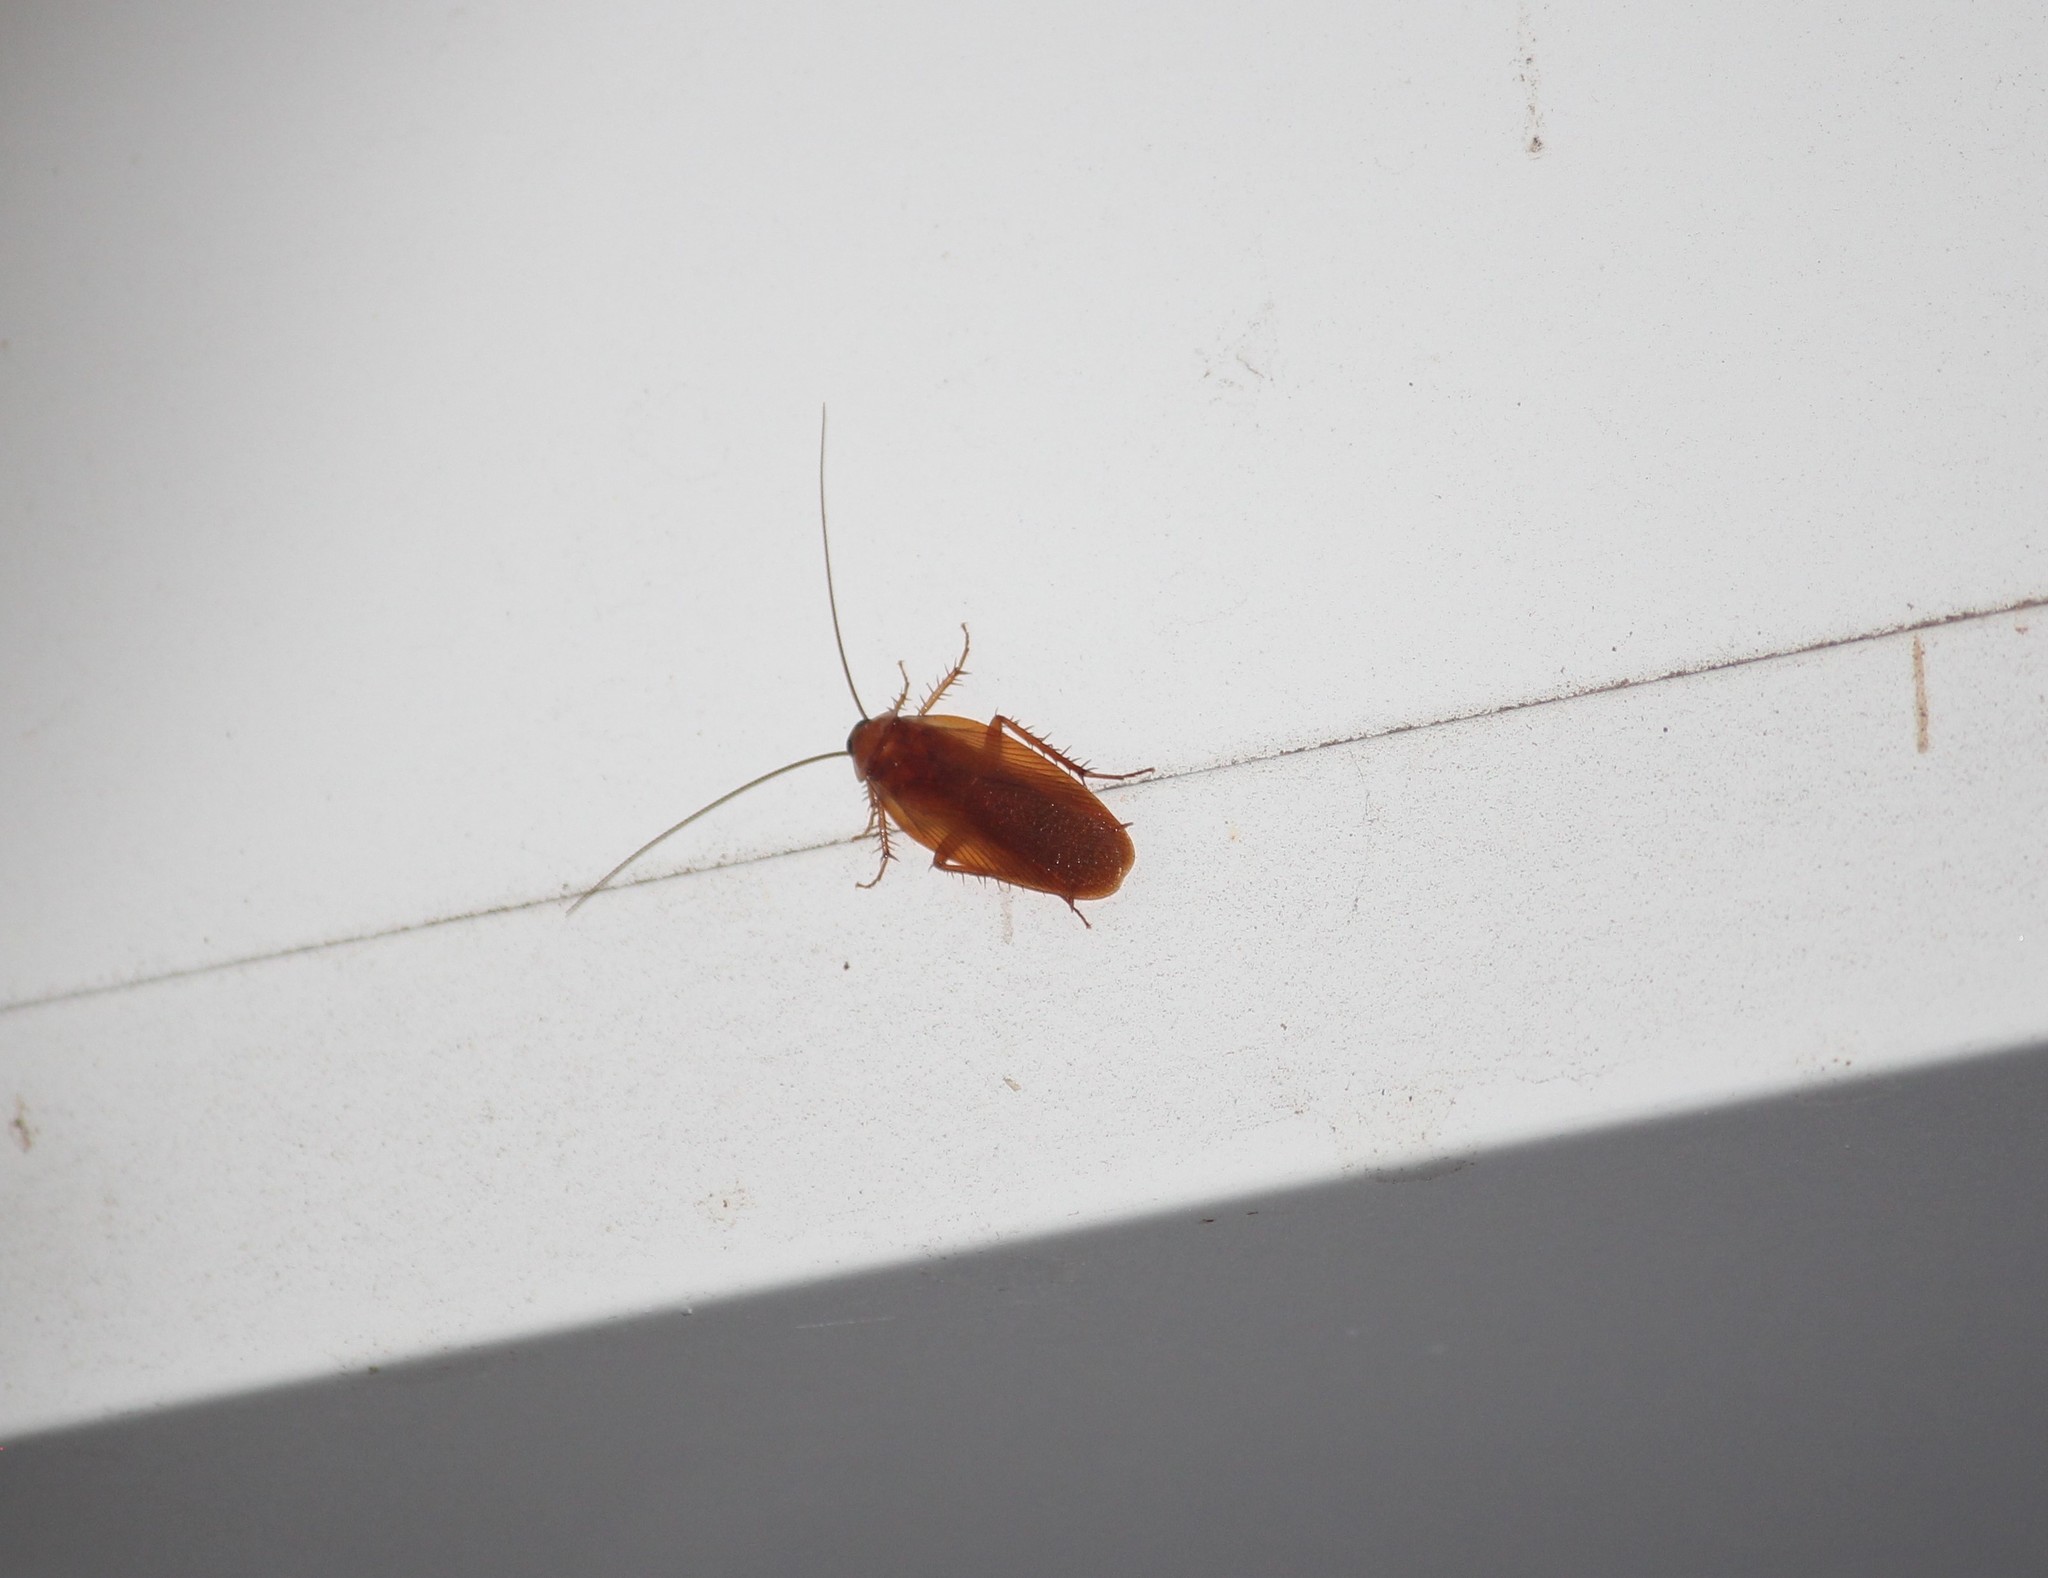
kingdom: Animalia
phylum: Arthropoda
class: Insecta
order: Blattodea
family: Ectobiidae
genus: Parcoblatta
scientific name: Parcoblatta uhleriana
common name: Uhler's wood cockroach
